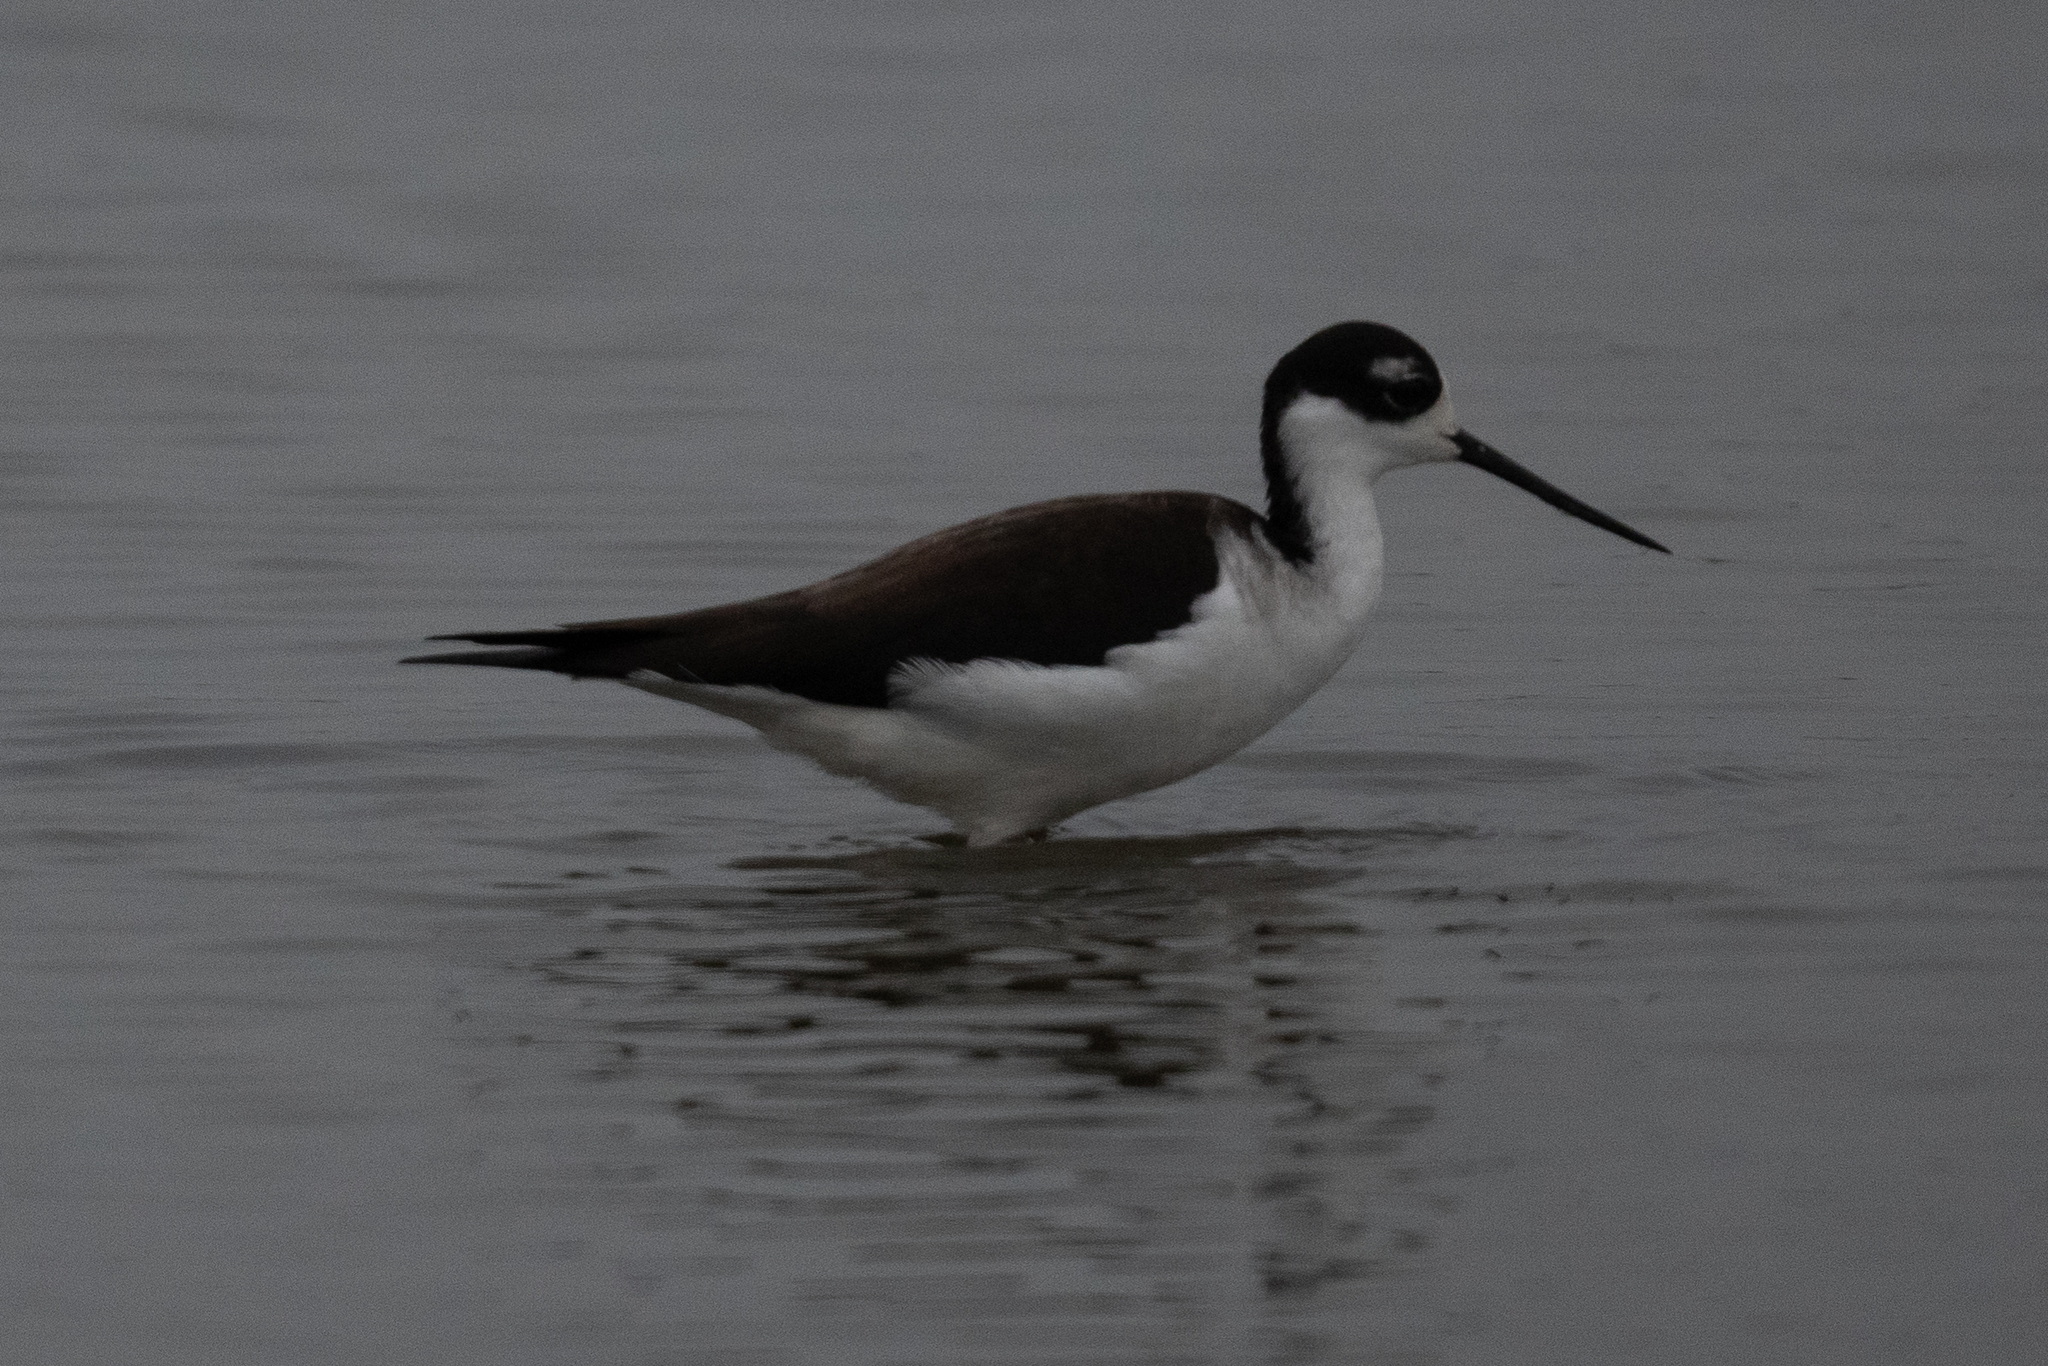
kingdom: Animalia
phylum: Chordata
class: Aves
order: Charadriiformes
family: Recurvirostridae
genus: Himantopus
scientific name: Himantopus mexicanus
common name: Black-necked stilt
